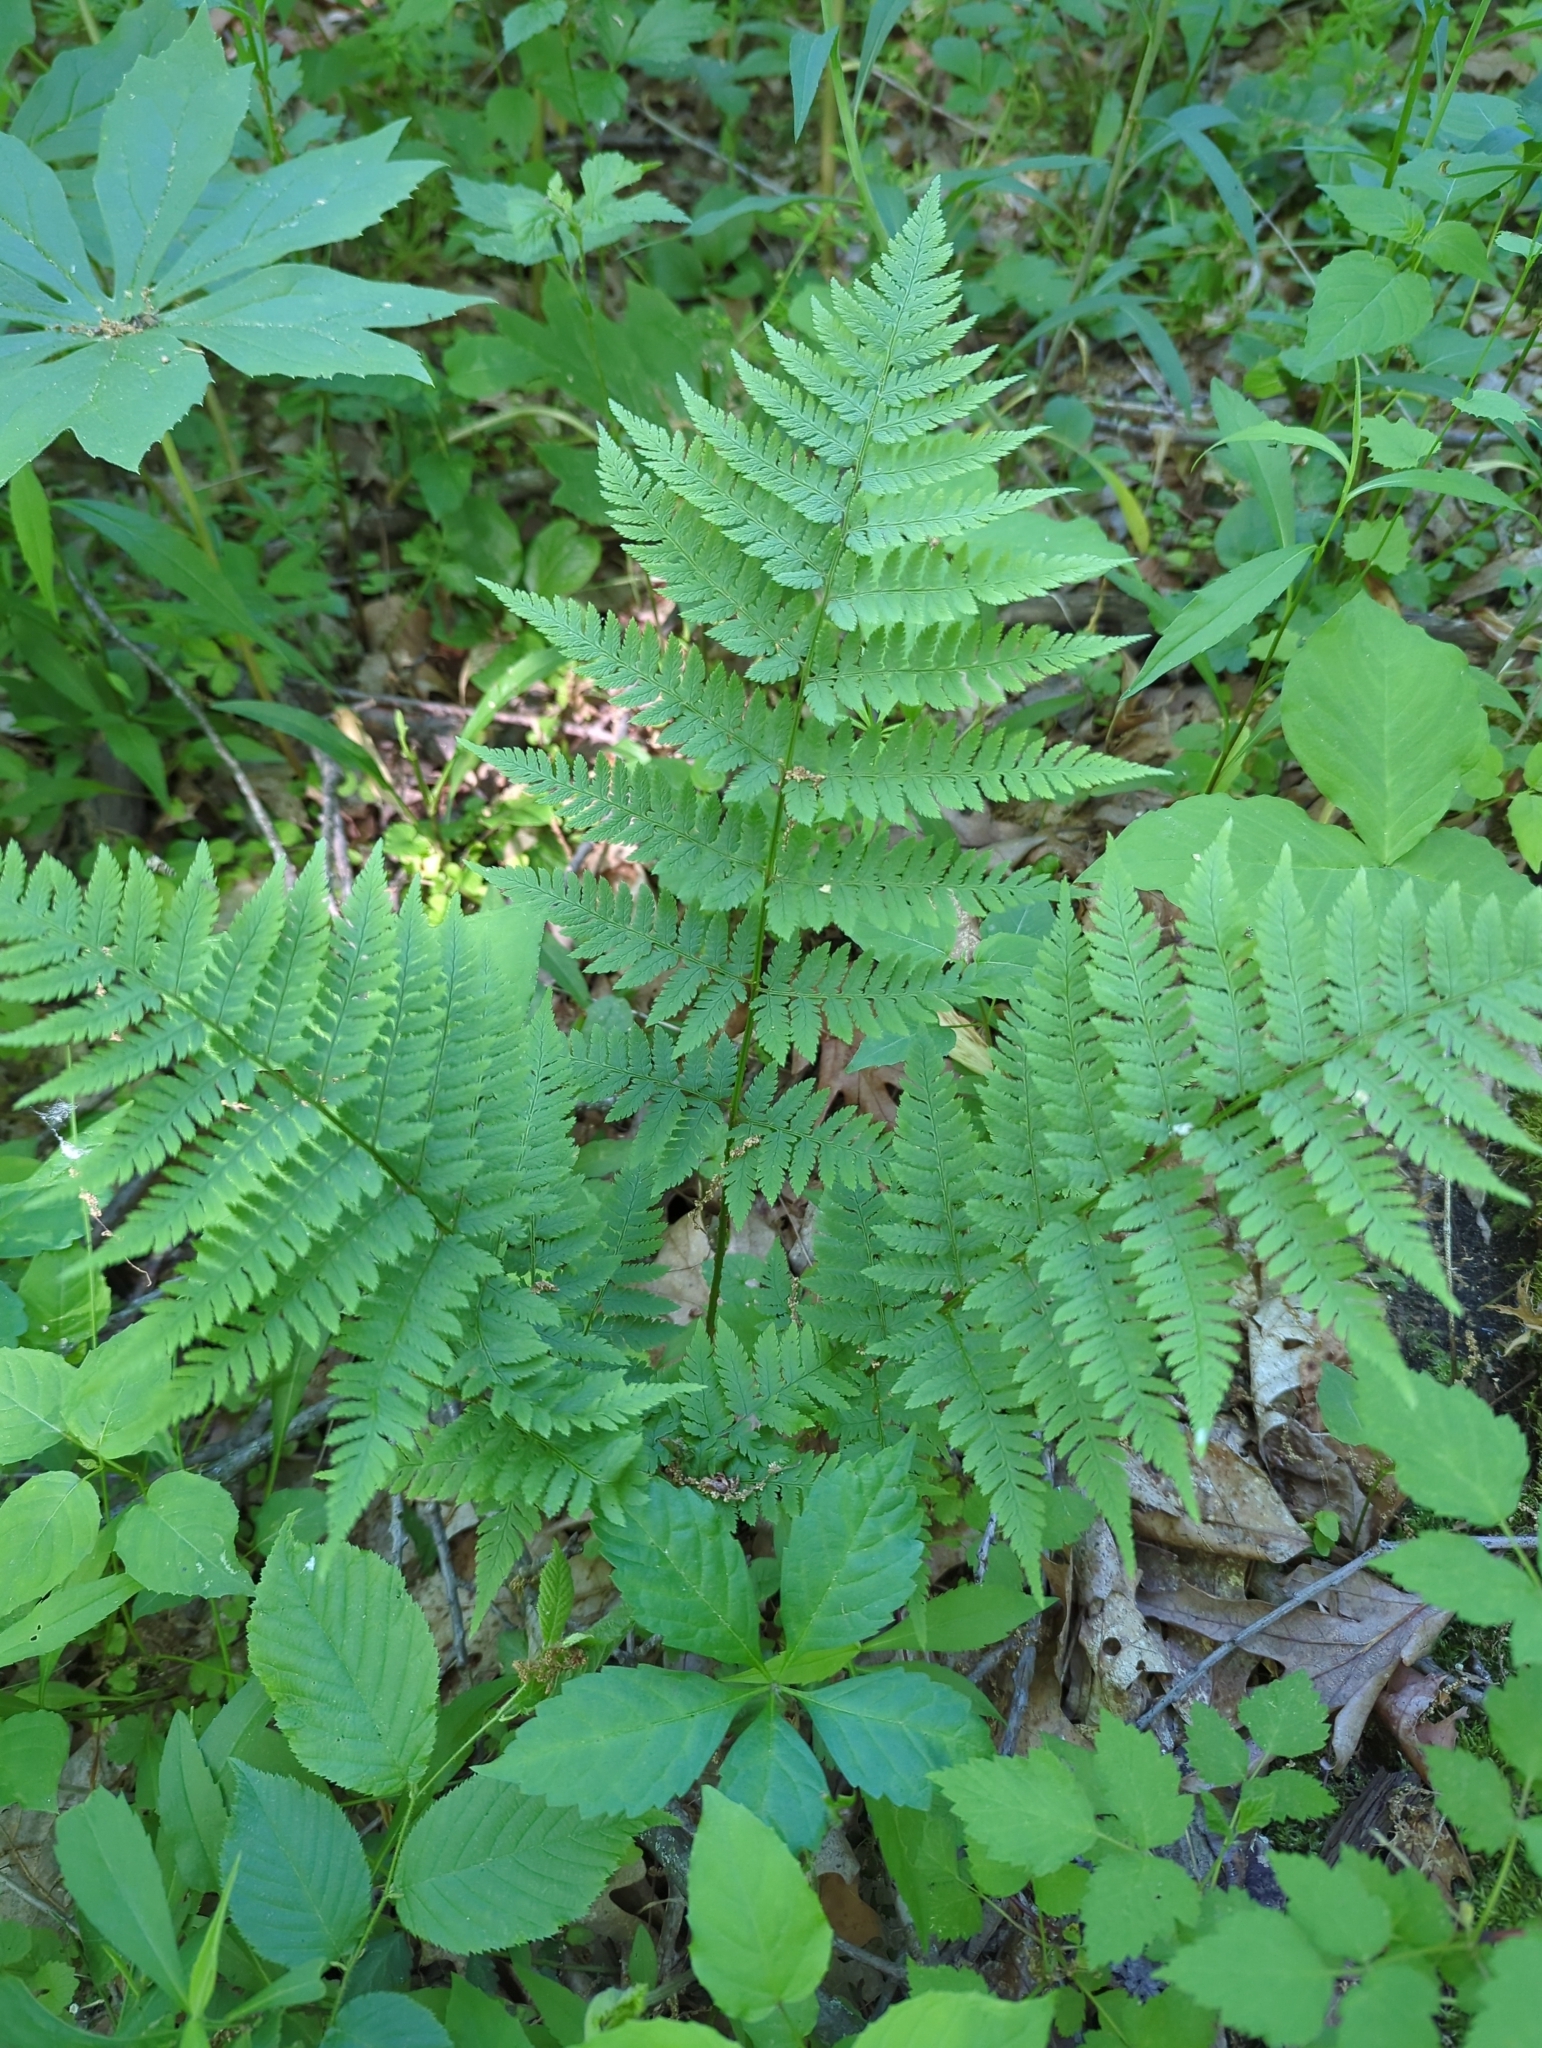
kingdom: Plantae
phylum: Tracheophyta
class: Polypodiopsida
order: Polypodiales
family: Dryopteridaceae
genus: Dryopteris
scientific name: Dryopteris carthusiana
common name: Narrow buckler-fern
